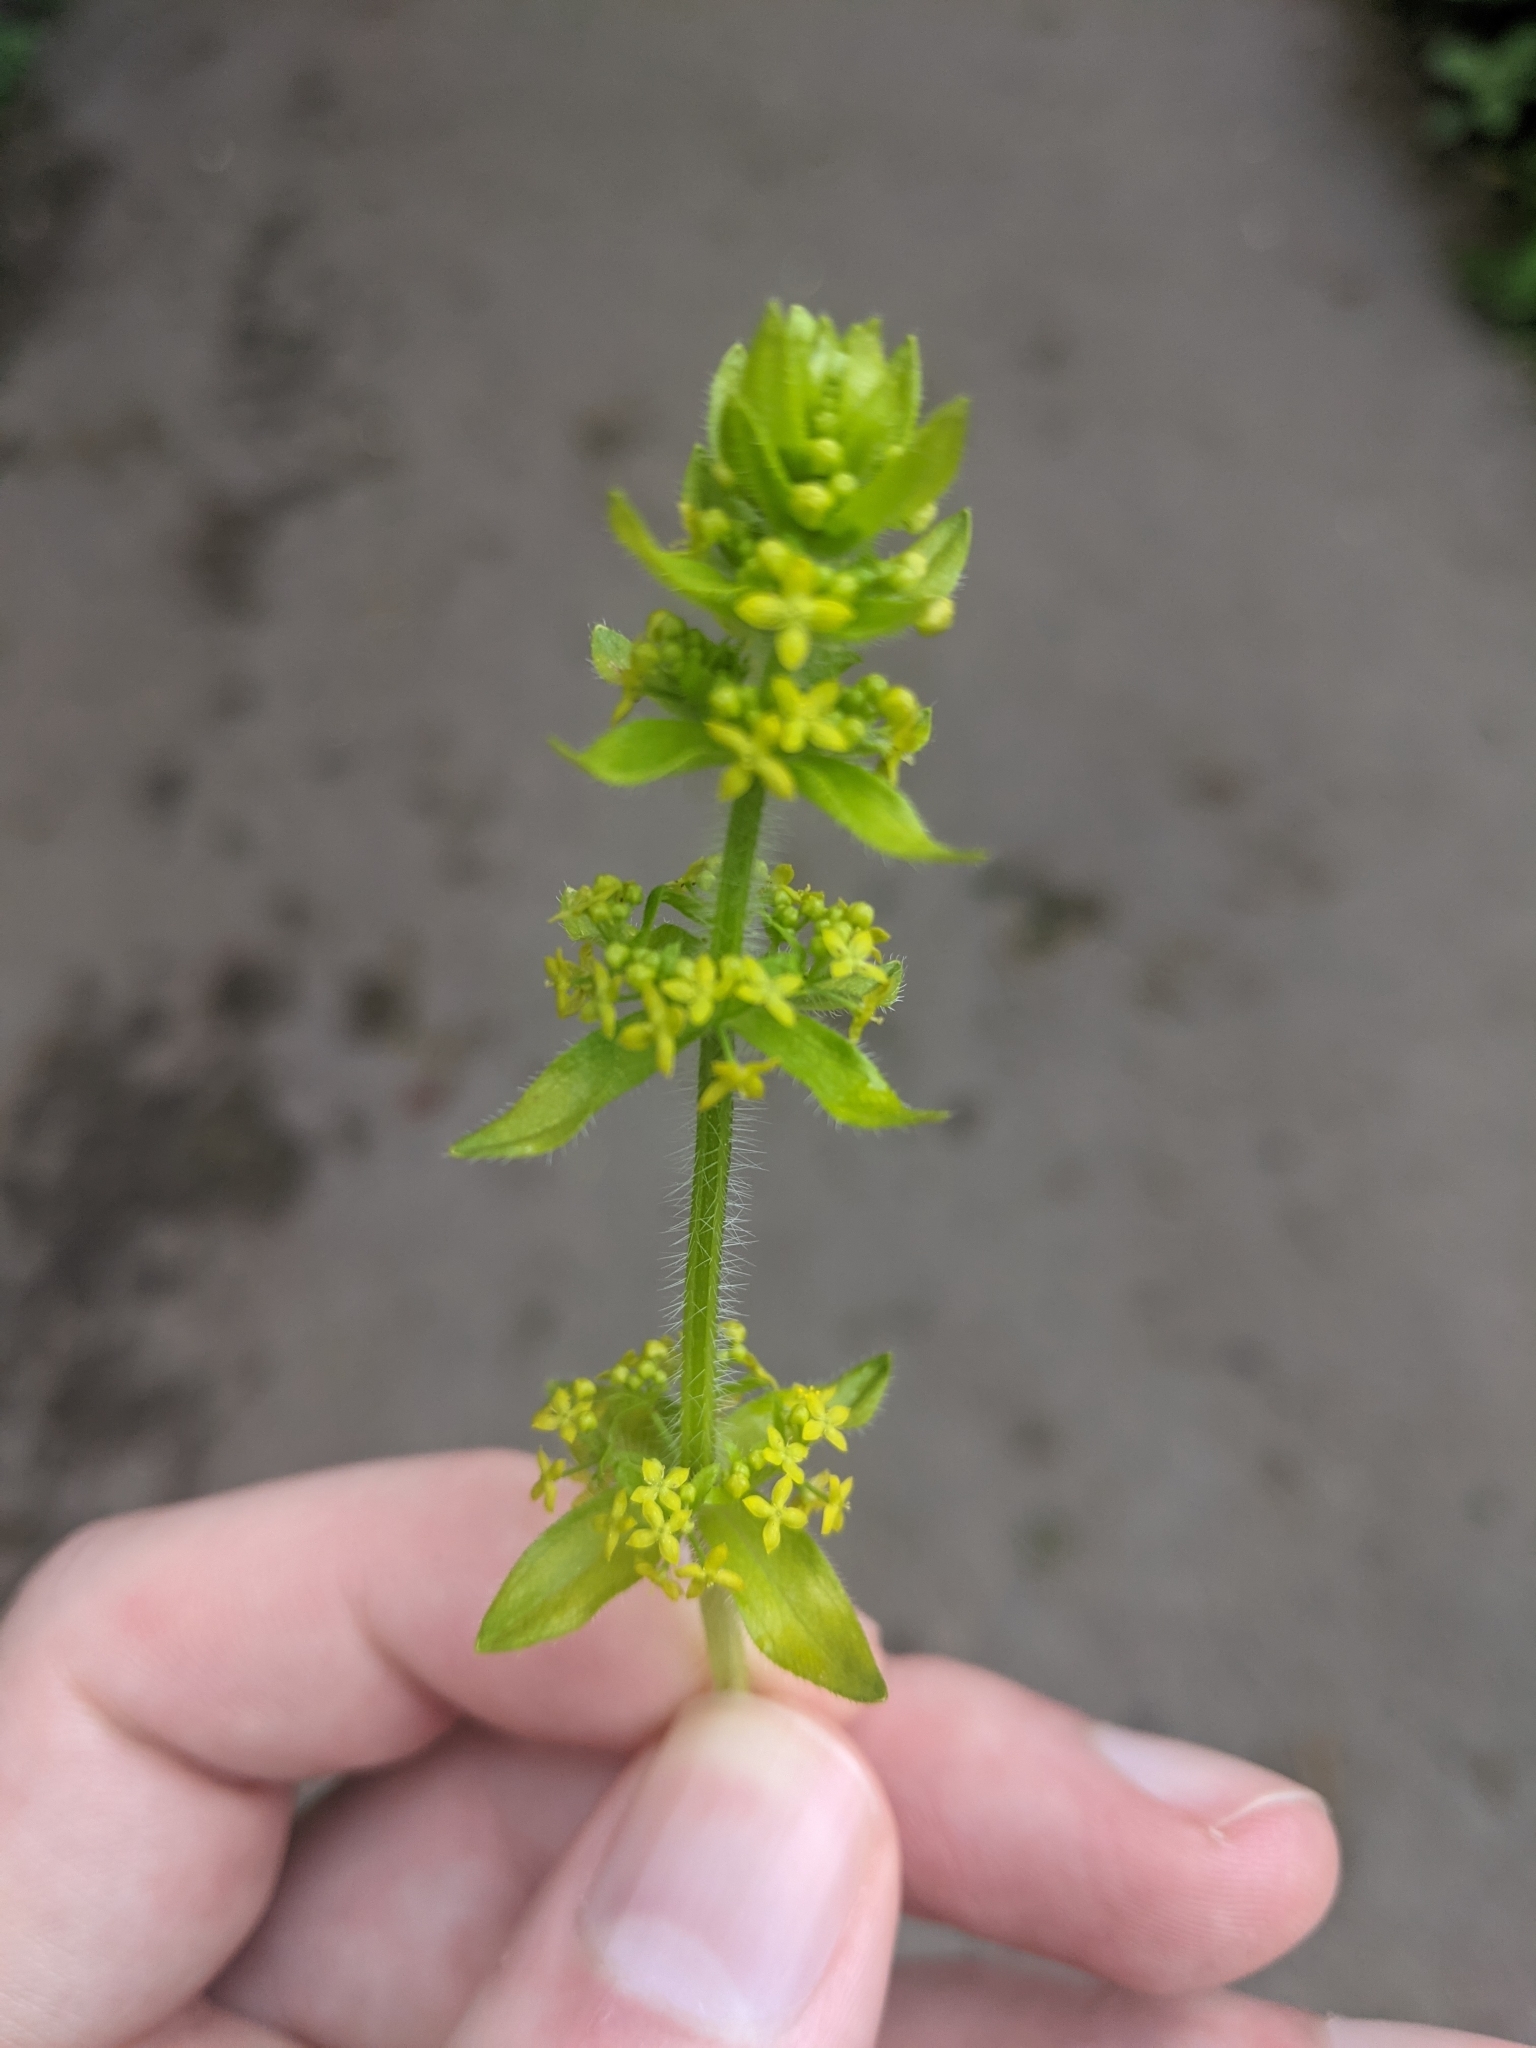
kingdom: Plantae
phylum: Tracheophyta
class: Magnoliopsida
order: Gentianales
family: Rubiaceae
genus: Cruciata
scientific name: Cruciata laevipes
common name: Crosswort
